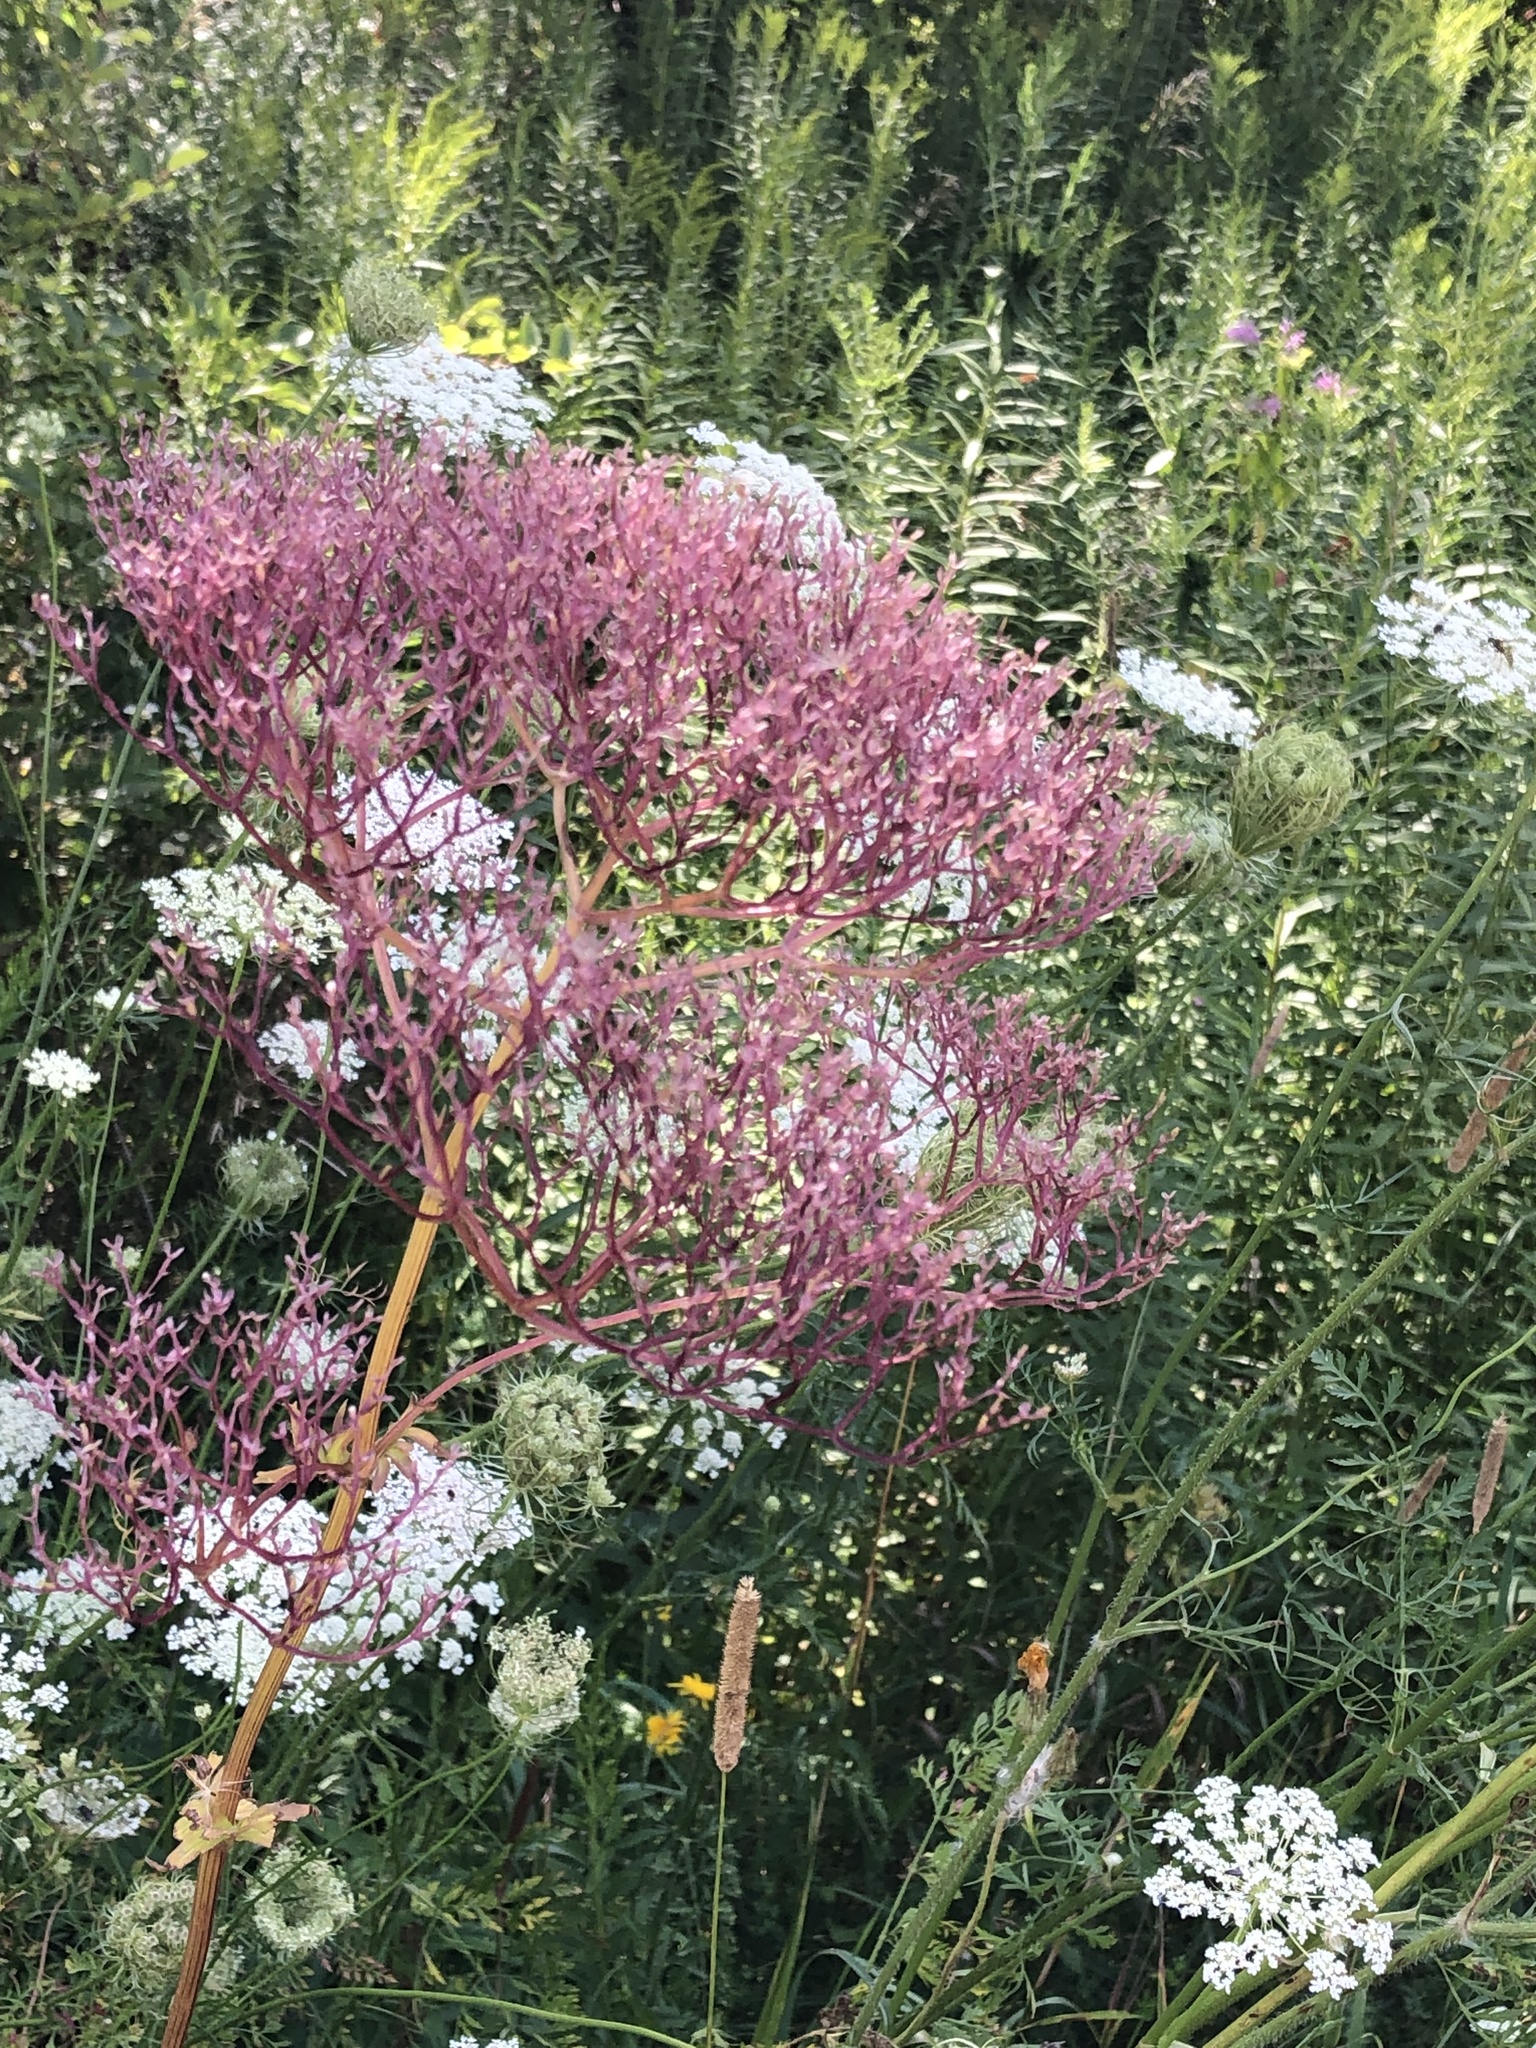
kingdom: Plantae
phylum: Tracheophyta
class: Magnoliopsida
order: Dipsacales
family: Caprifoliaceae
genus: Valeriana
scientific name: Valeriana officinalis
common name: Common valerian
